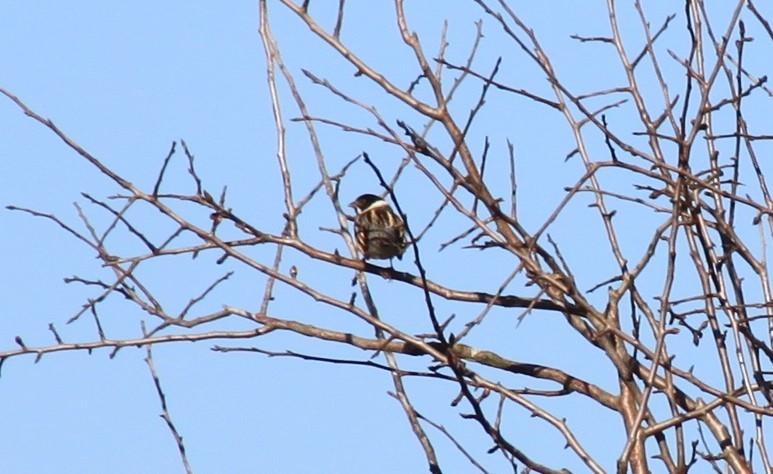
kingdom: Animalia
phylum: Chordata
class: Aves
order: Passeriformes
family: Emberizidae
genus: Emberiza
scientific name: Emberiza schoeniclus
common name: Reed bunting
